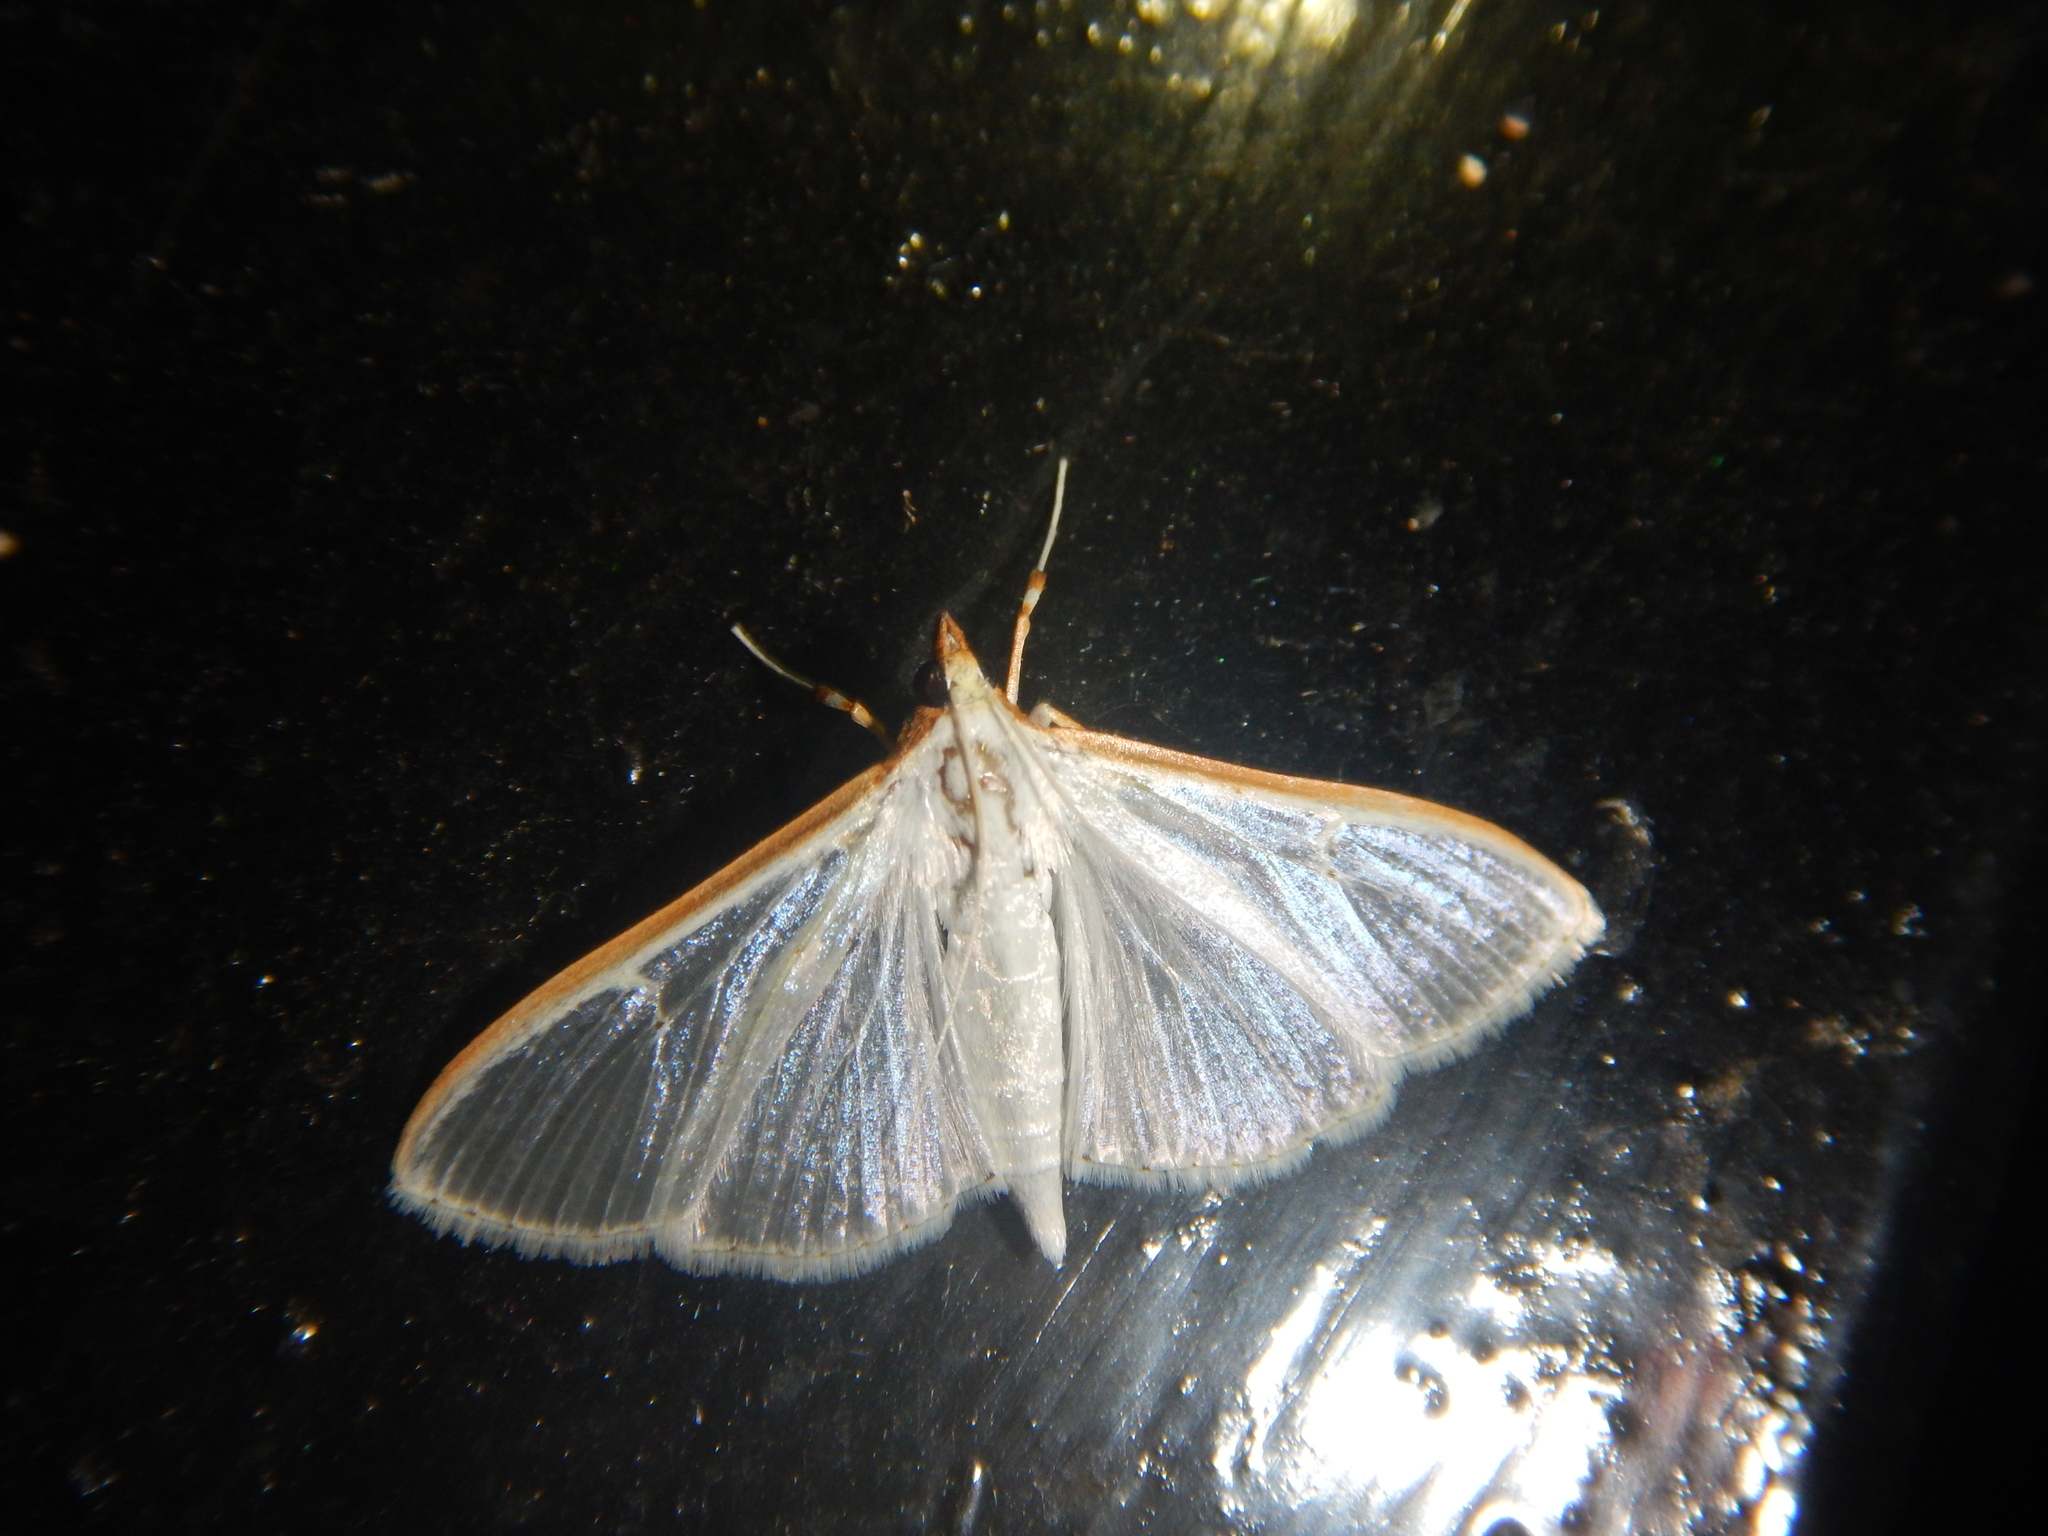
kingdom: Animalia
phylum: Arthropoda
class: Insecta
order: Lepidoptera
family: Crambidae
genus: Palpita
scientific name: Palpita vitrealis
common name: Olive-tree pearl
